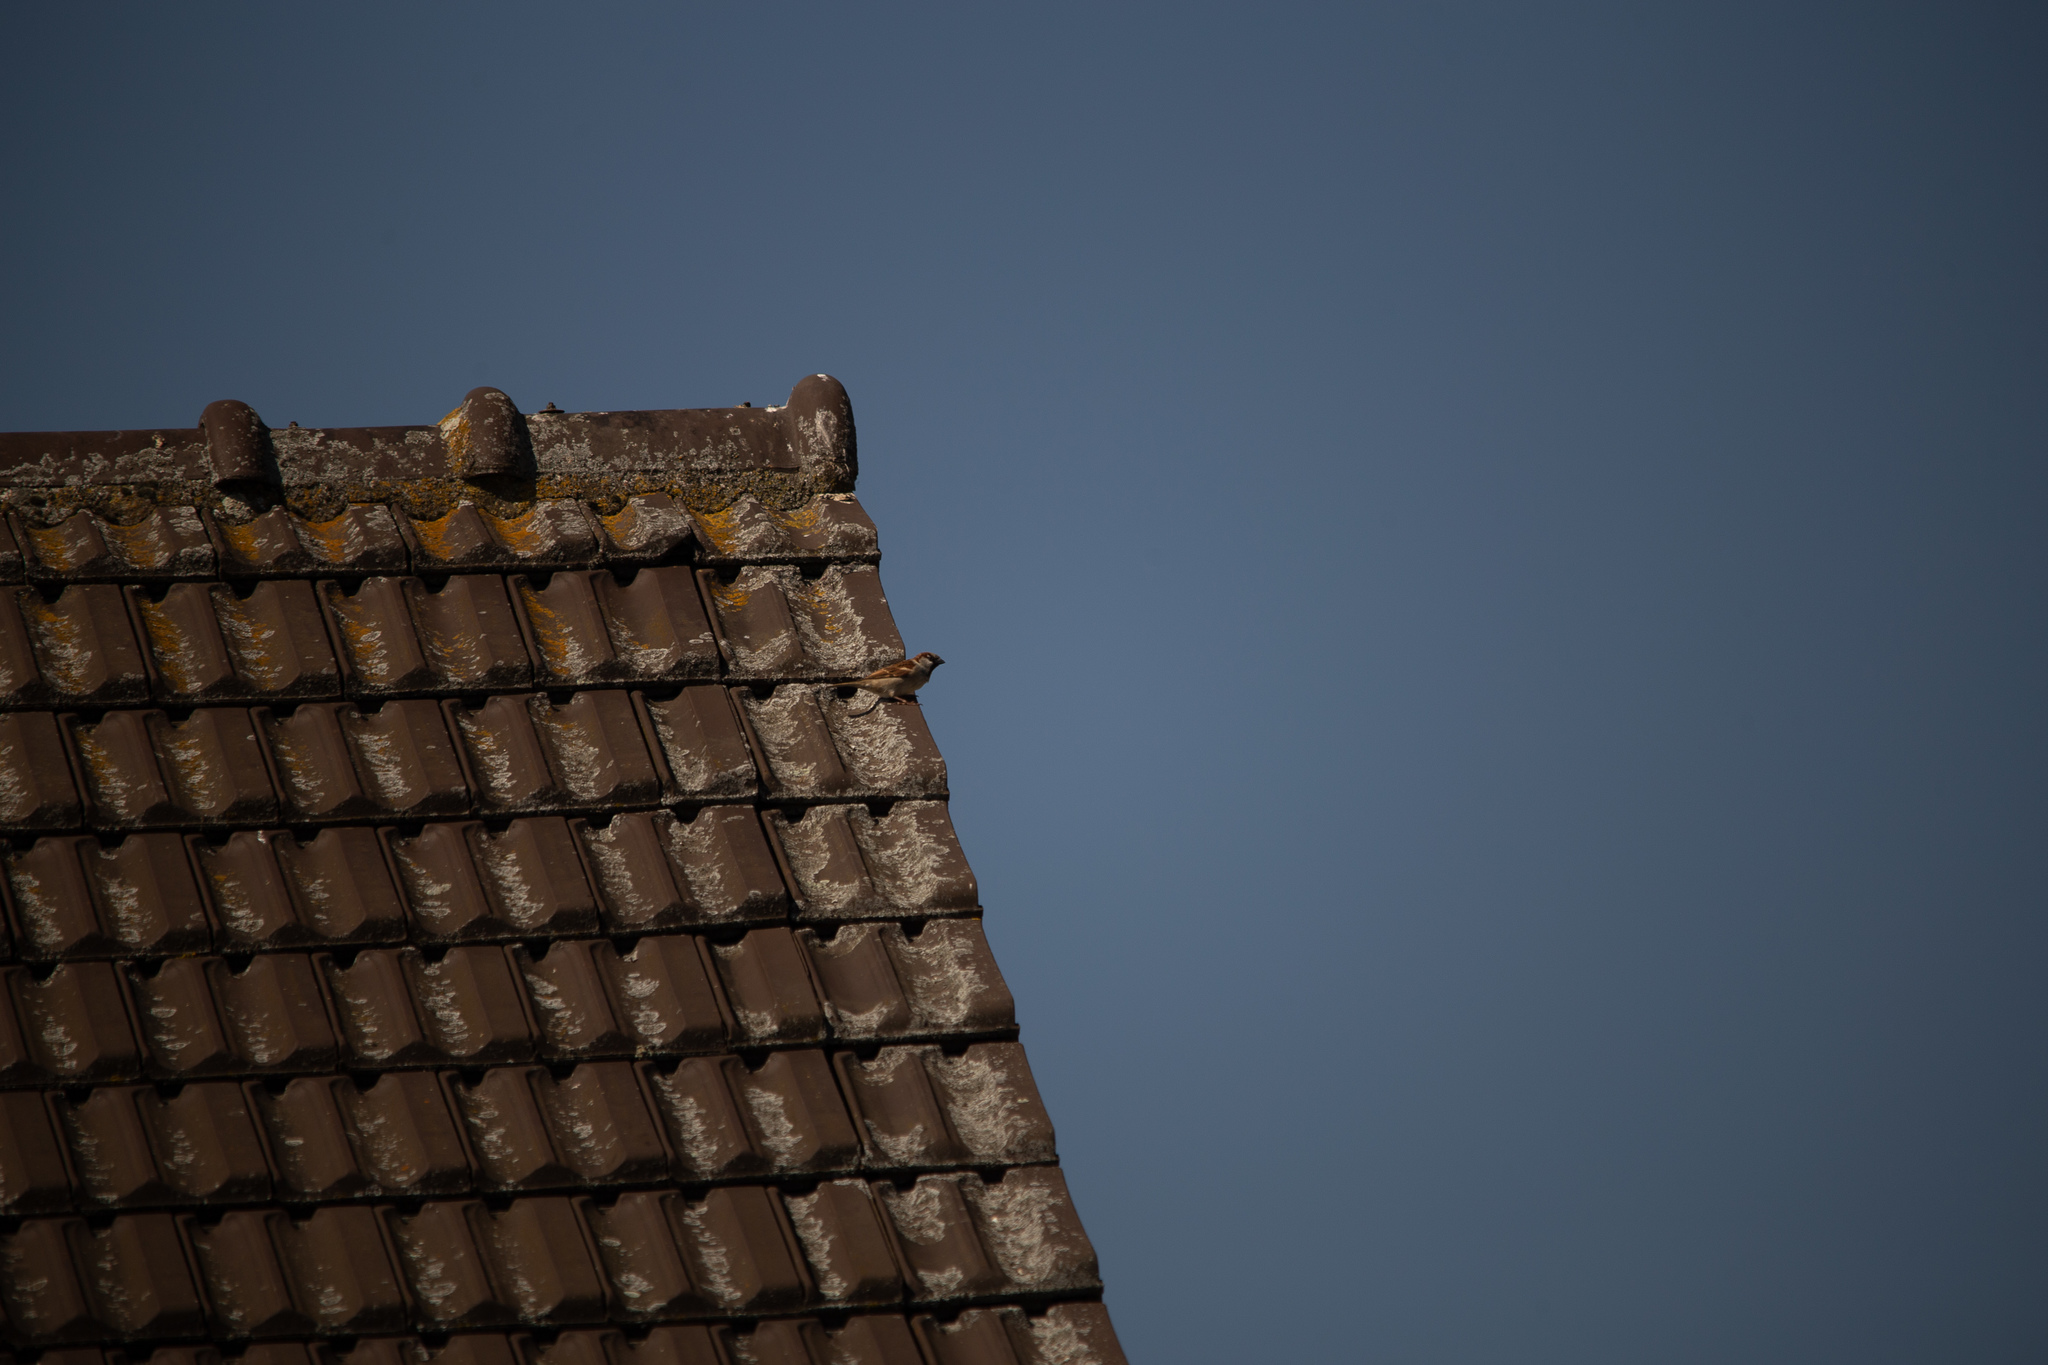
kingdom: Animalia
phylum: Chordata
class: Aves
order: Passeriformes
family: Passeridae
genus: Passer
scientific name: Passer domesticus
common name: House sparrow
